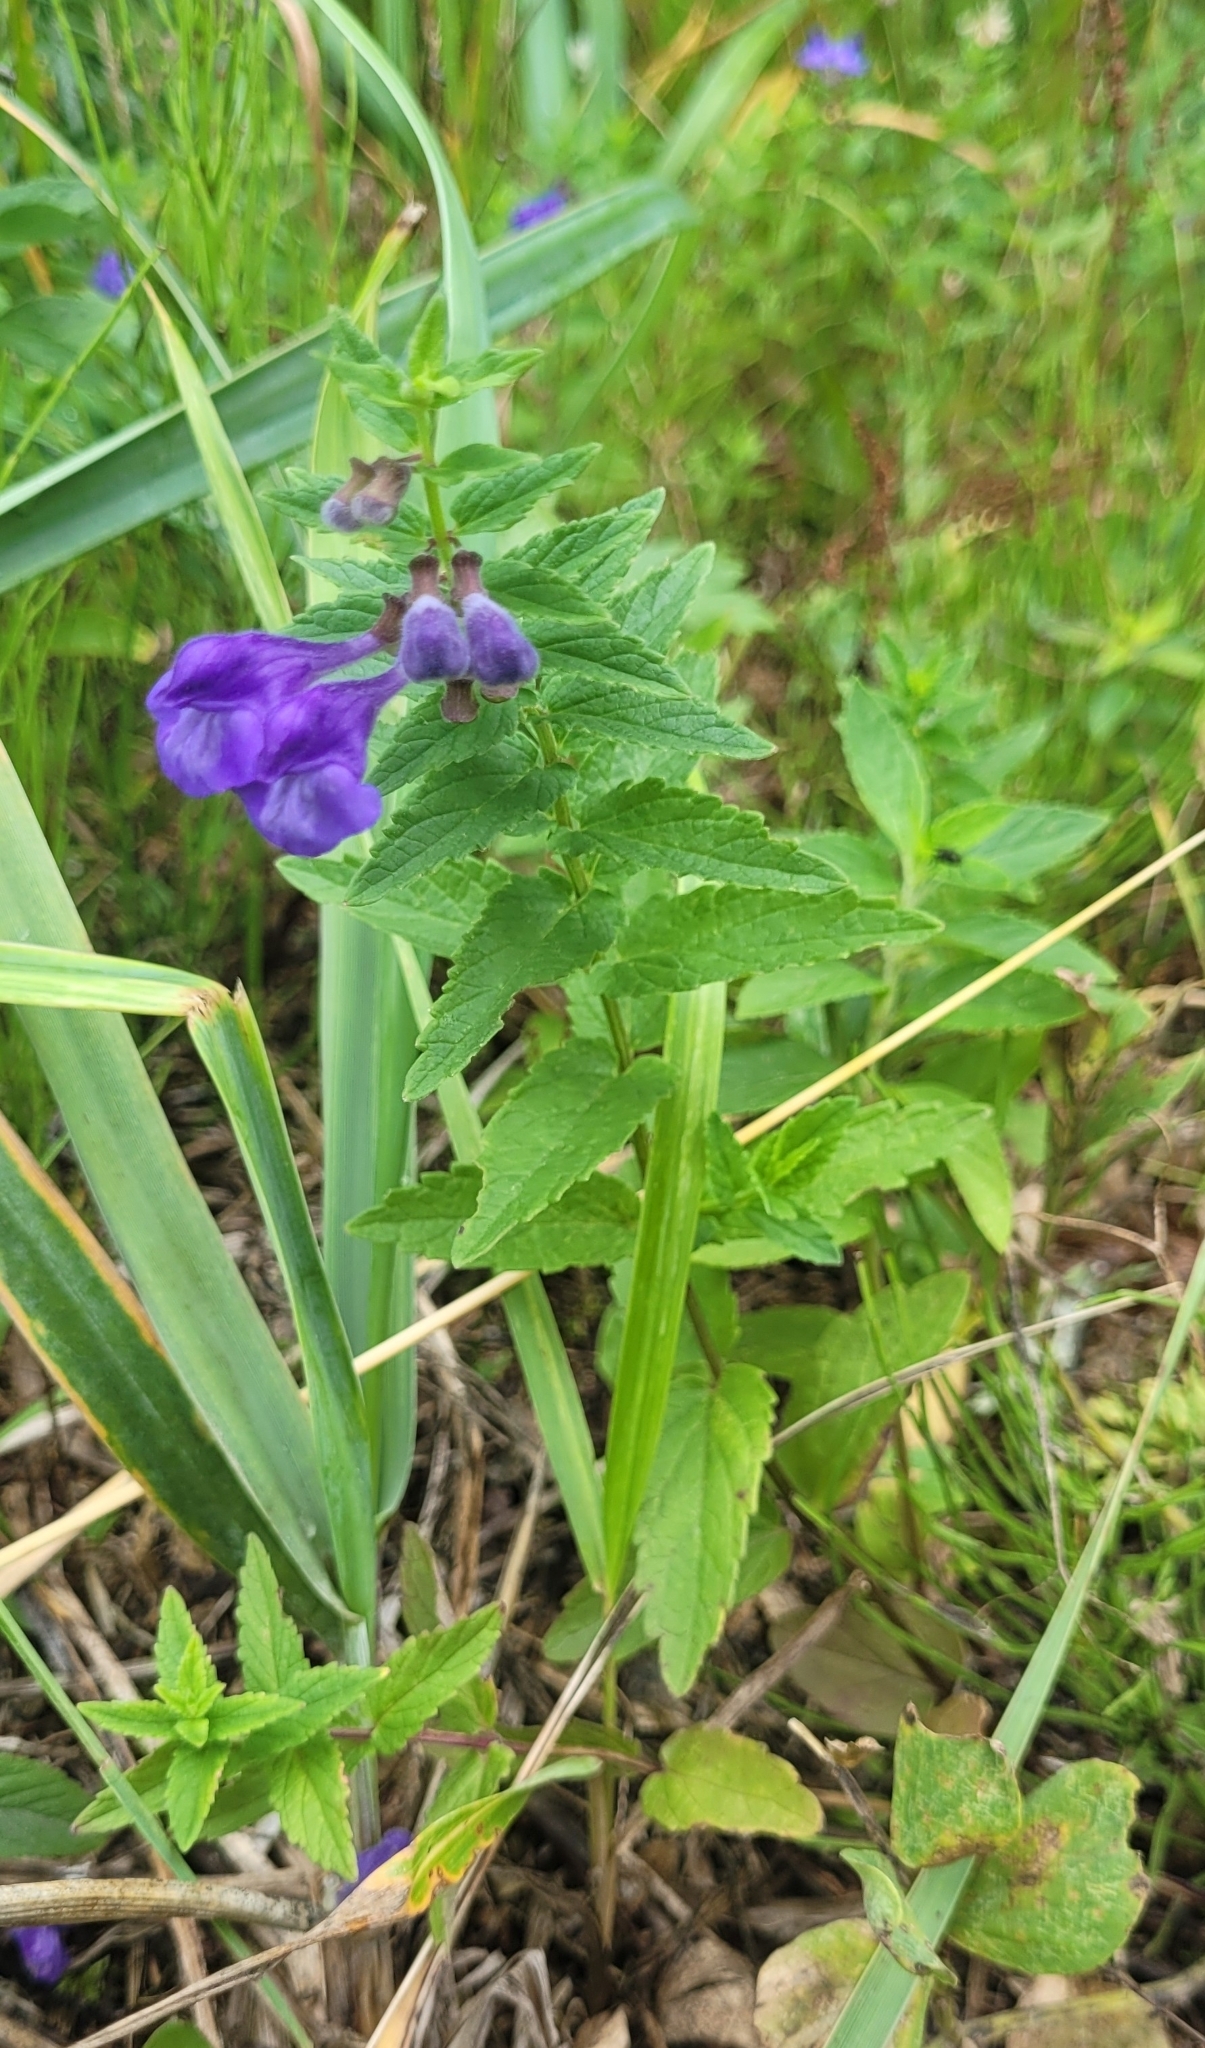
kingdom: Plantae
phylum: Tracheophyta
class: Magnoliopsida
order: Lamiales
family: Lamiaceae
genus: Scutellaria
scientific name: Scutellaria yezoensis
